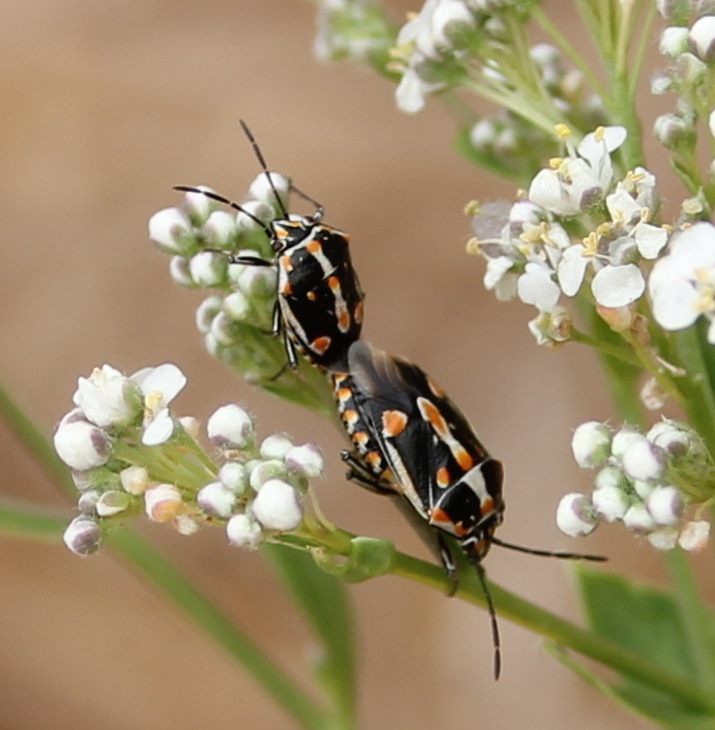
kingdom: Animalia
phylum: Arthropoda
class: Insecta
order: Hemiptera
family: Pentatomidae
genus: Bagrada
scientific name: Bagrada hilaris
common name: Bagrada bug
